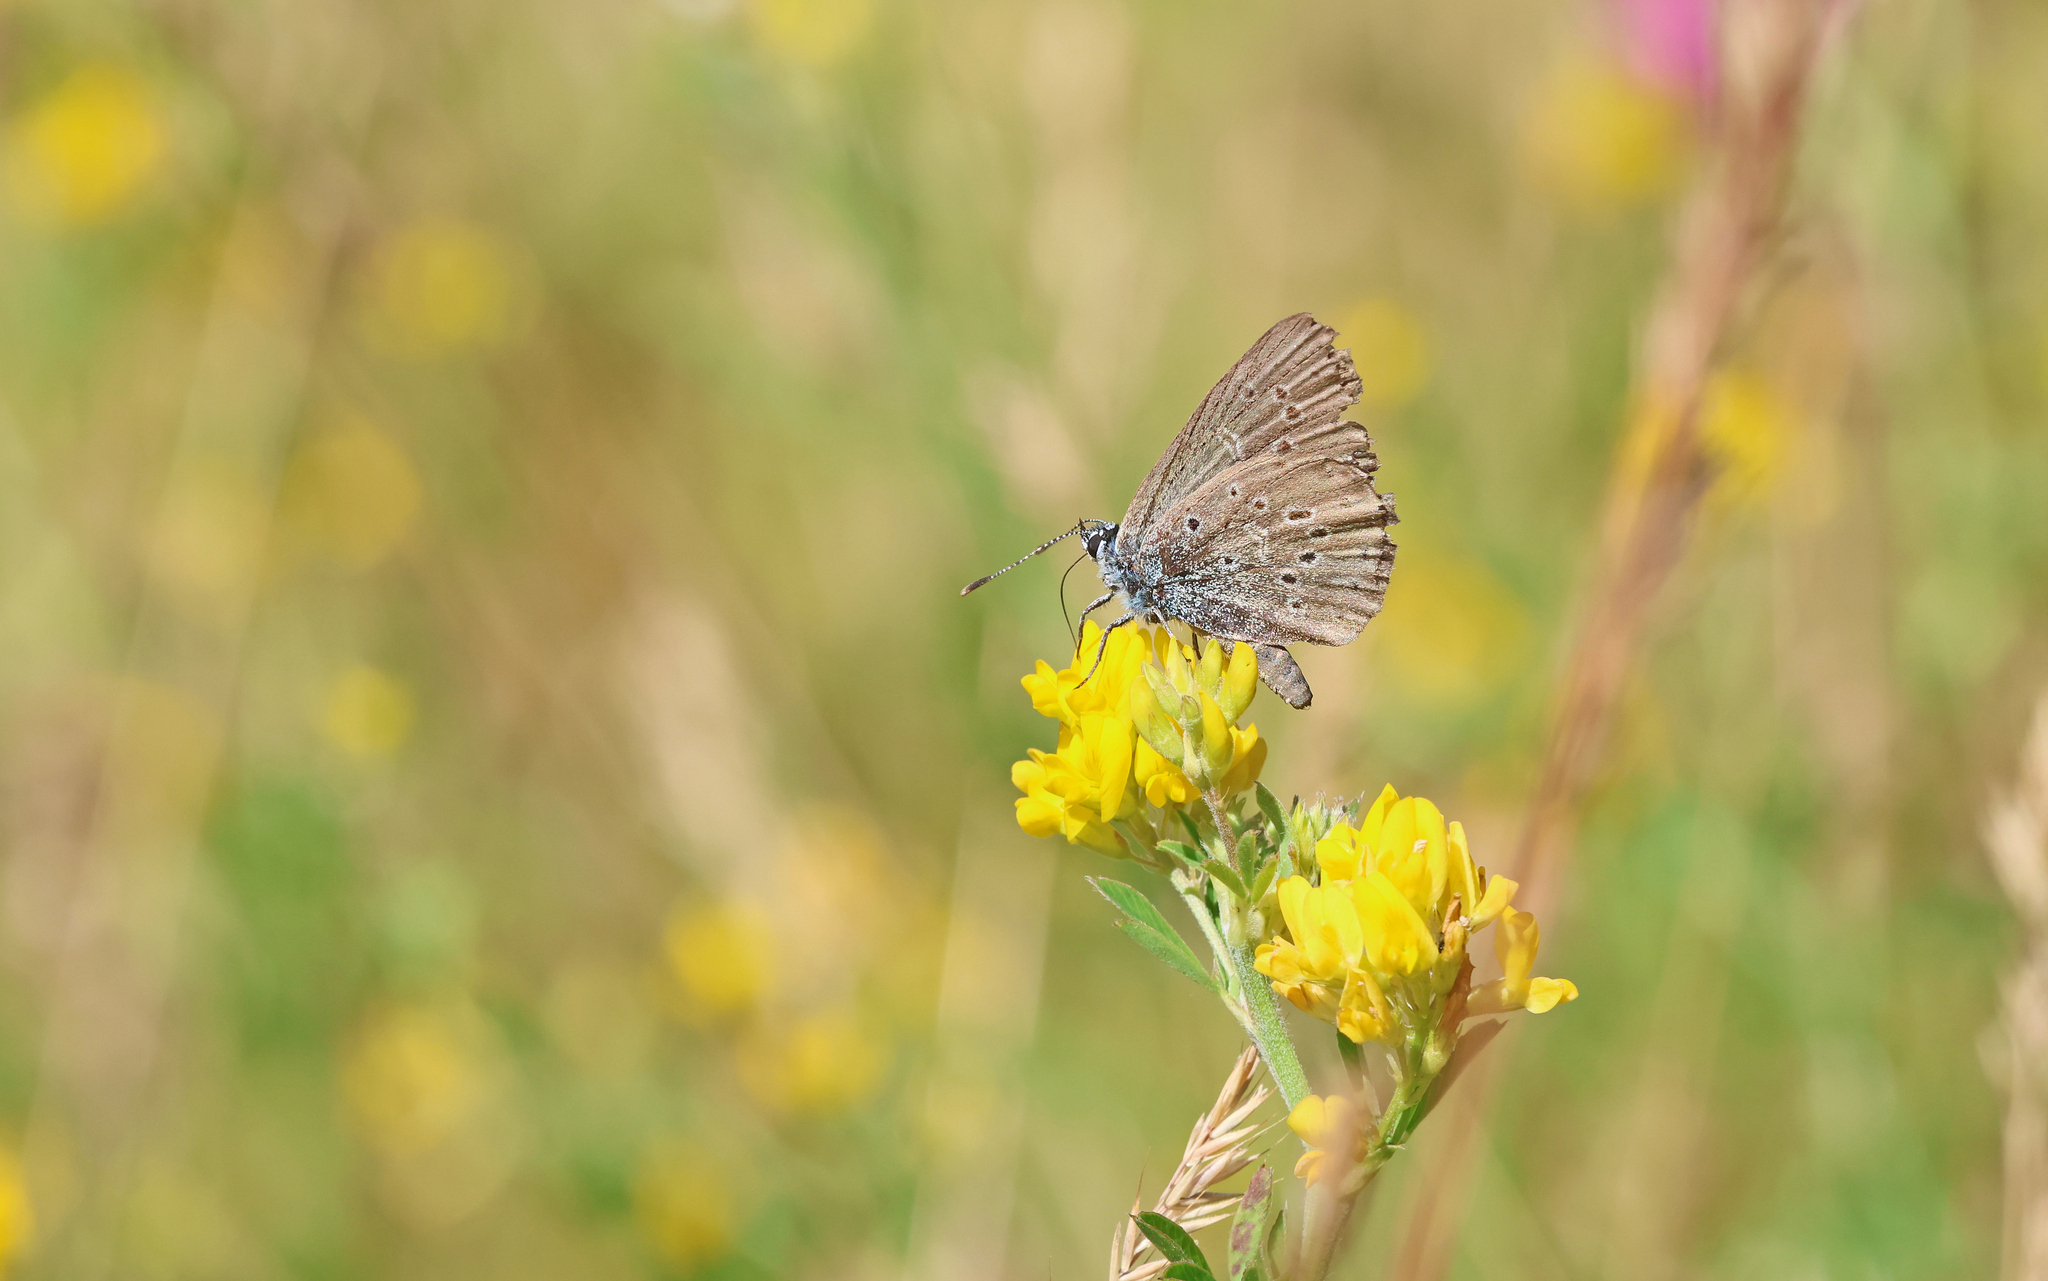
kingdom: Animalia
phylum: Arthropoda
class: Insecta
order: Lepidoptera
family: Lycaenidae
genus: Maculinea
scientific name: Maculinea alcon
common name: Alcon blue
